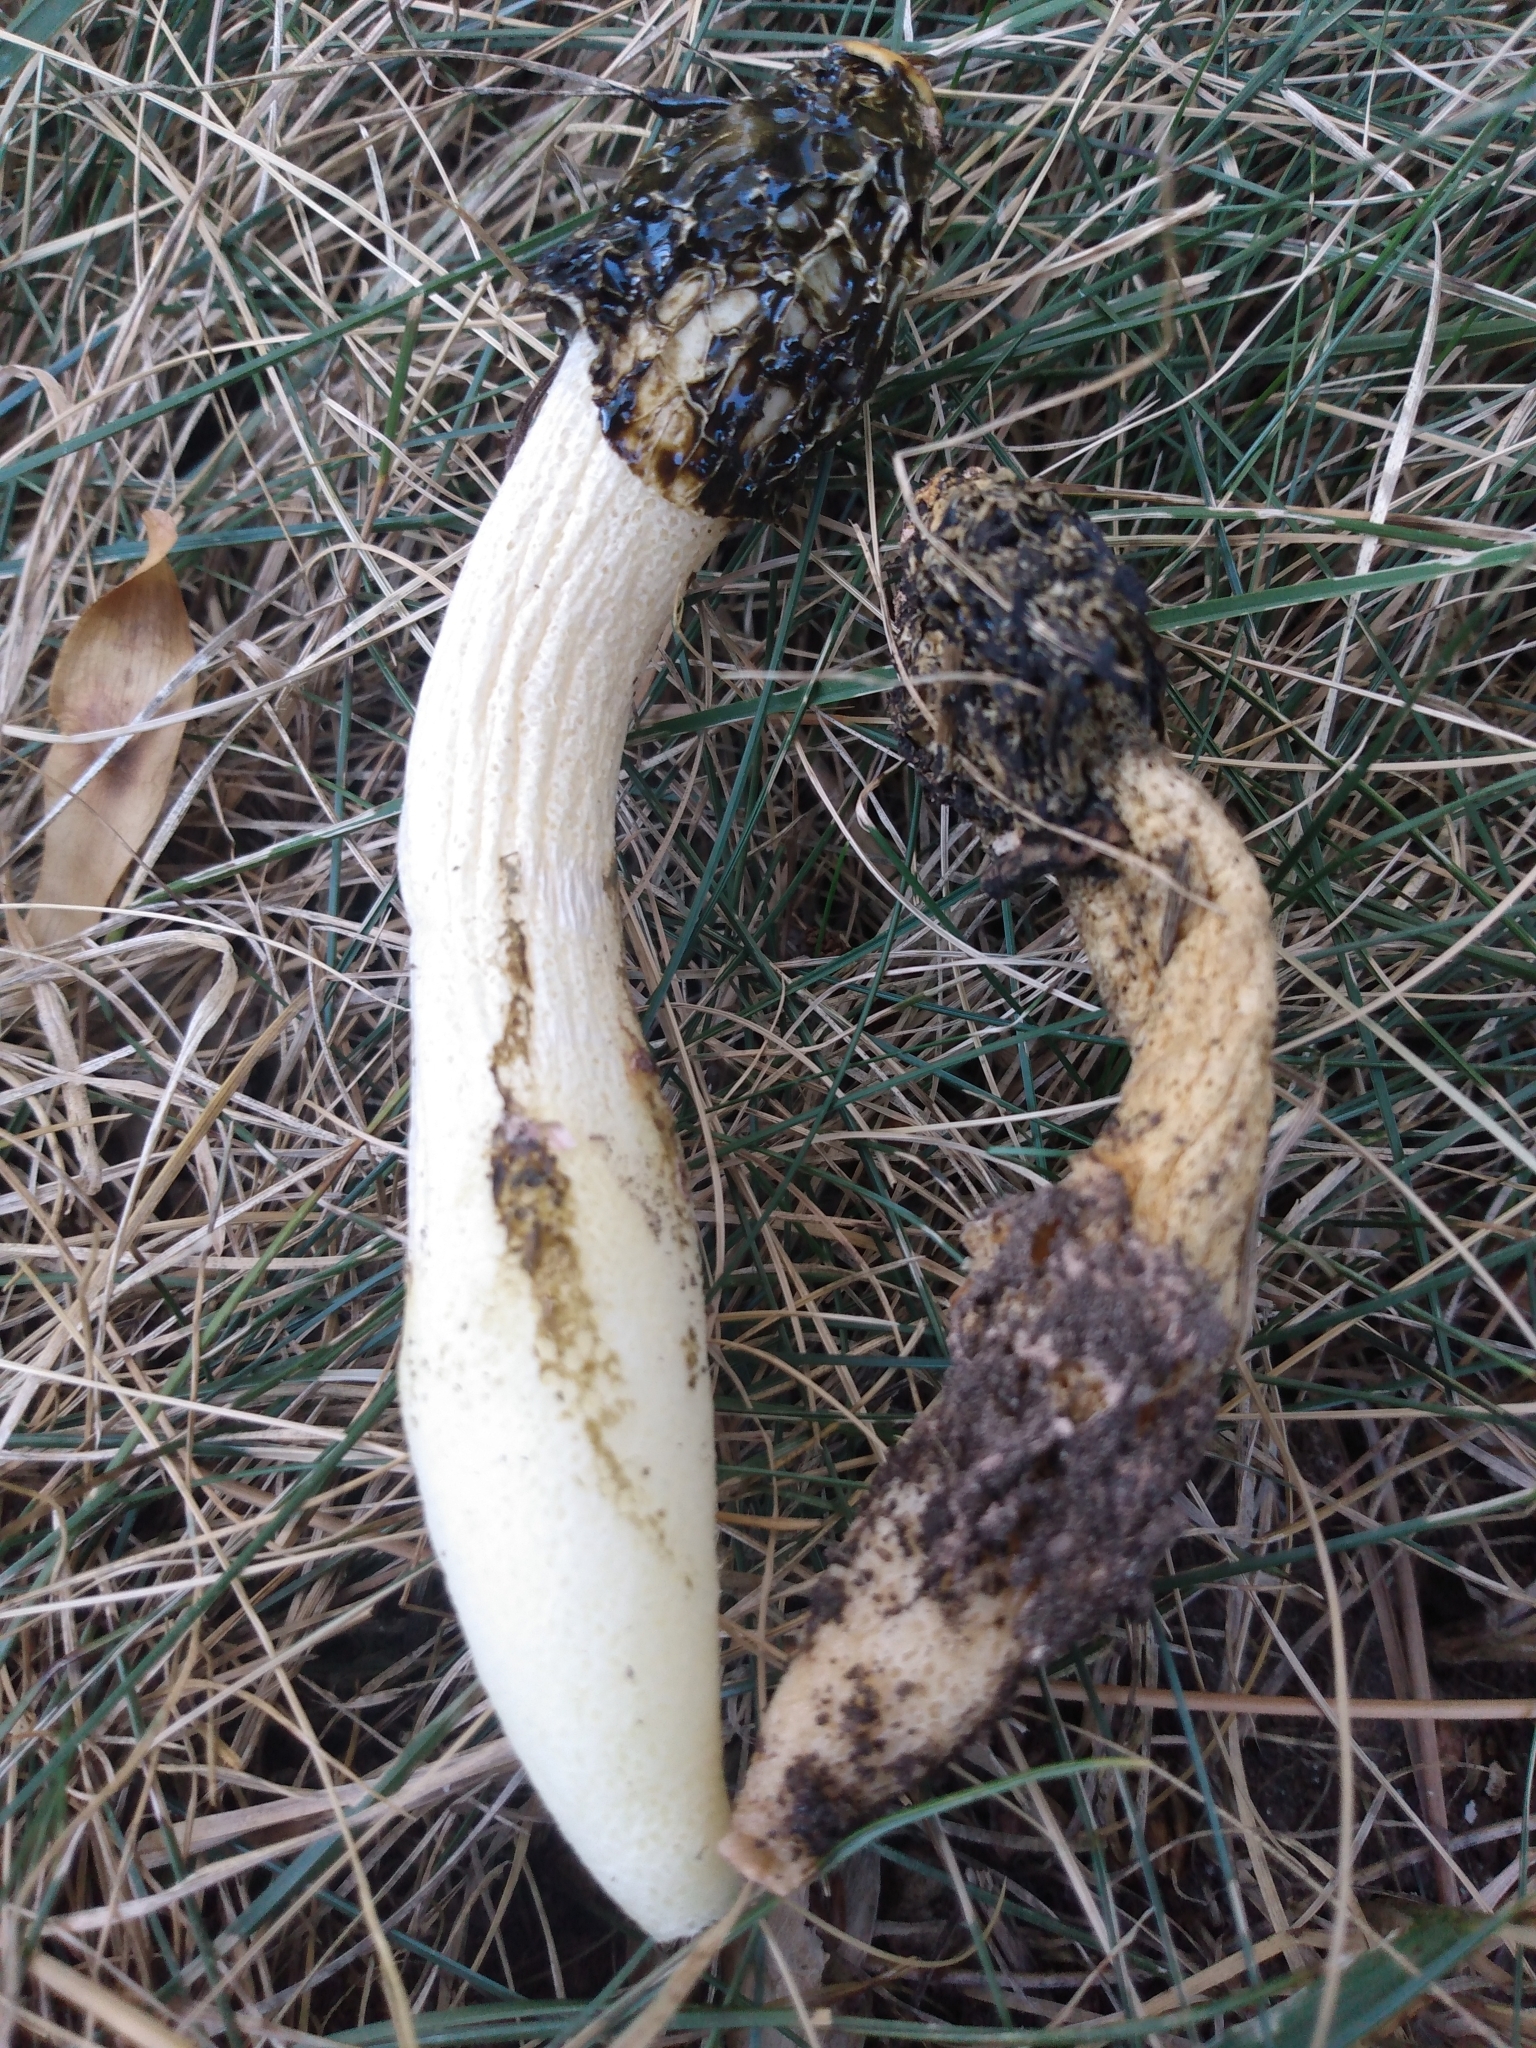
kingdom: Fungi
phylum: Basidiomycota
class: Agaricomycetes
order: Phallales
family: Phallaceae
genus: Phallus
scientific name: Phallus impudicus
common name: Common stinkhorn
